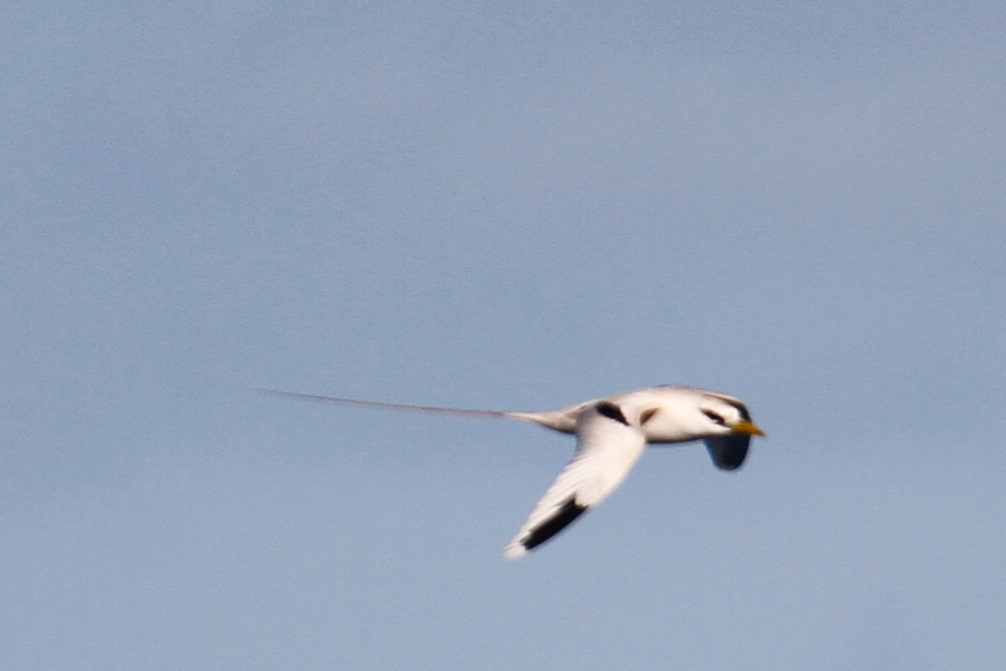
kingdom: Animalia
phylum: Chordata
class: Aves
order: Phaethontiformes
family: Phaethontidae
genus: Phaethon
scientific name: Phaethon lepturus
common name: White-tailed tropicbird
